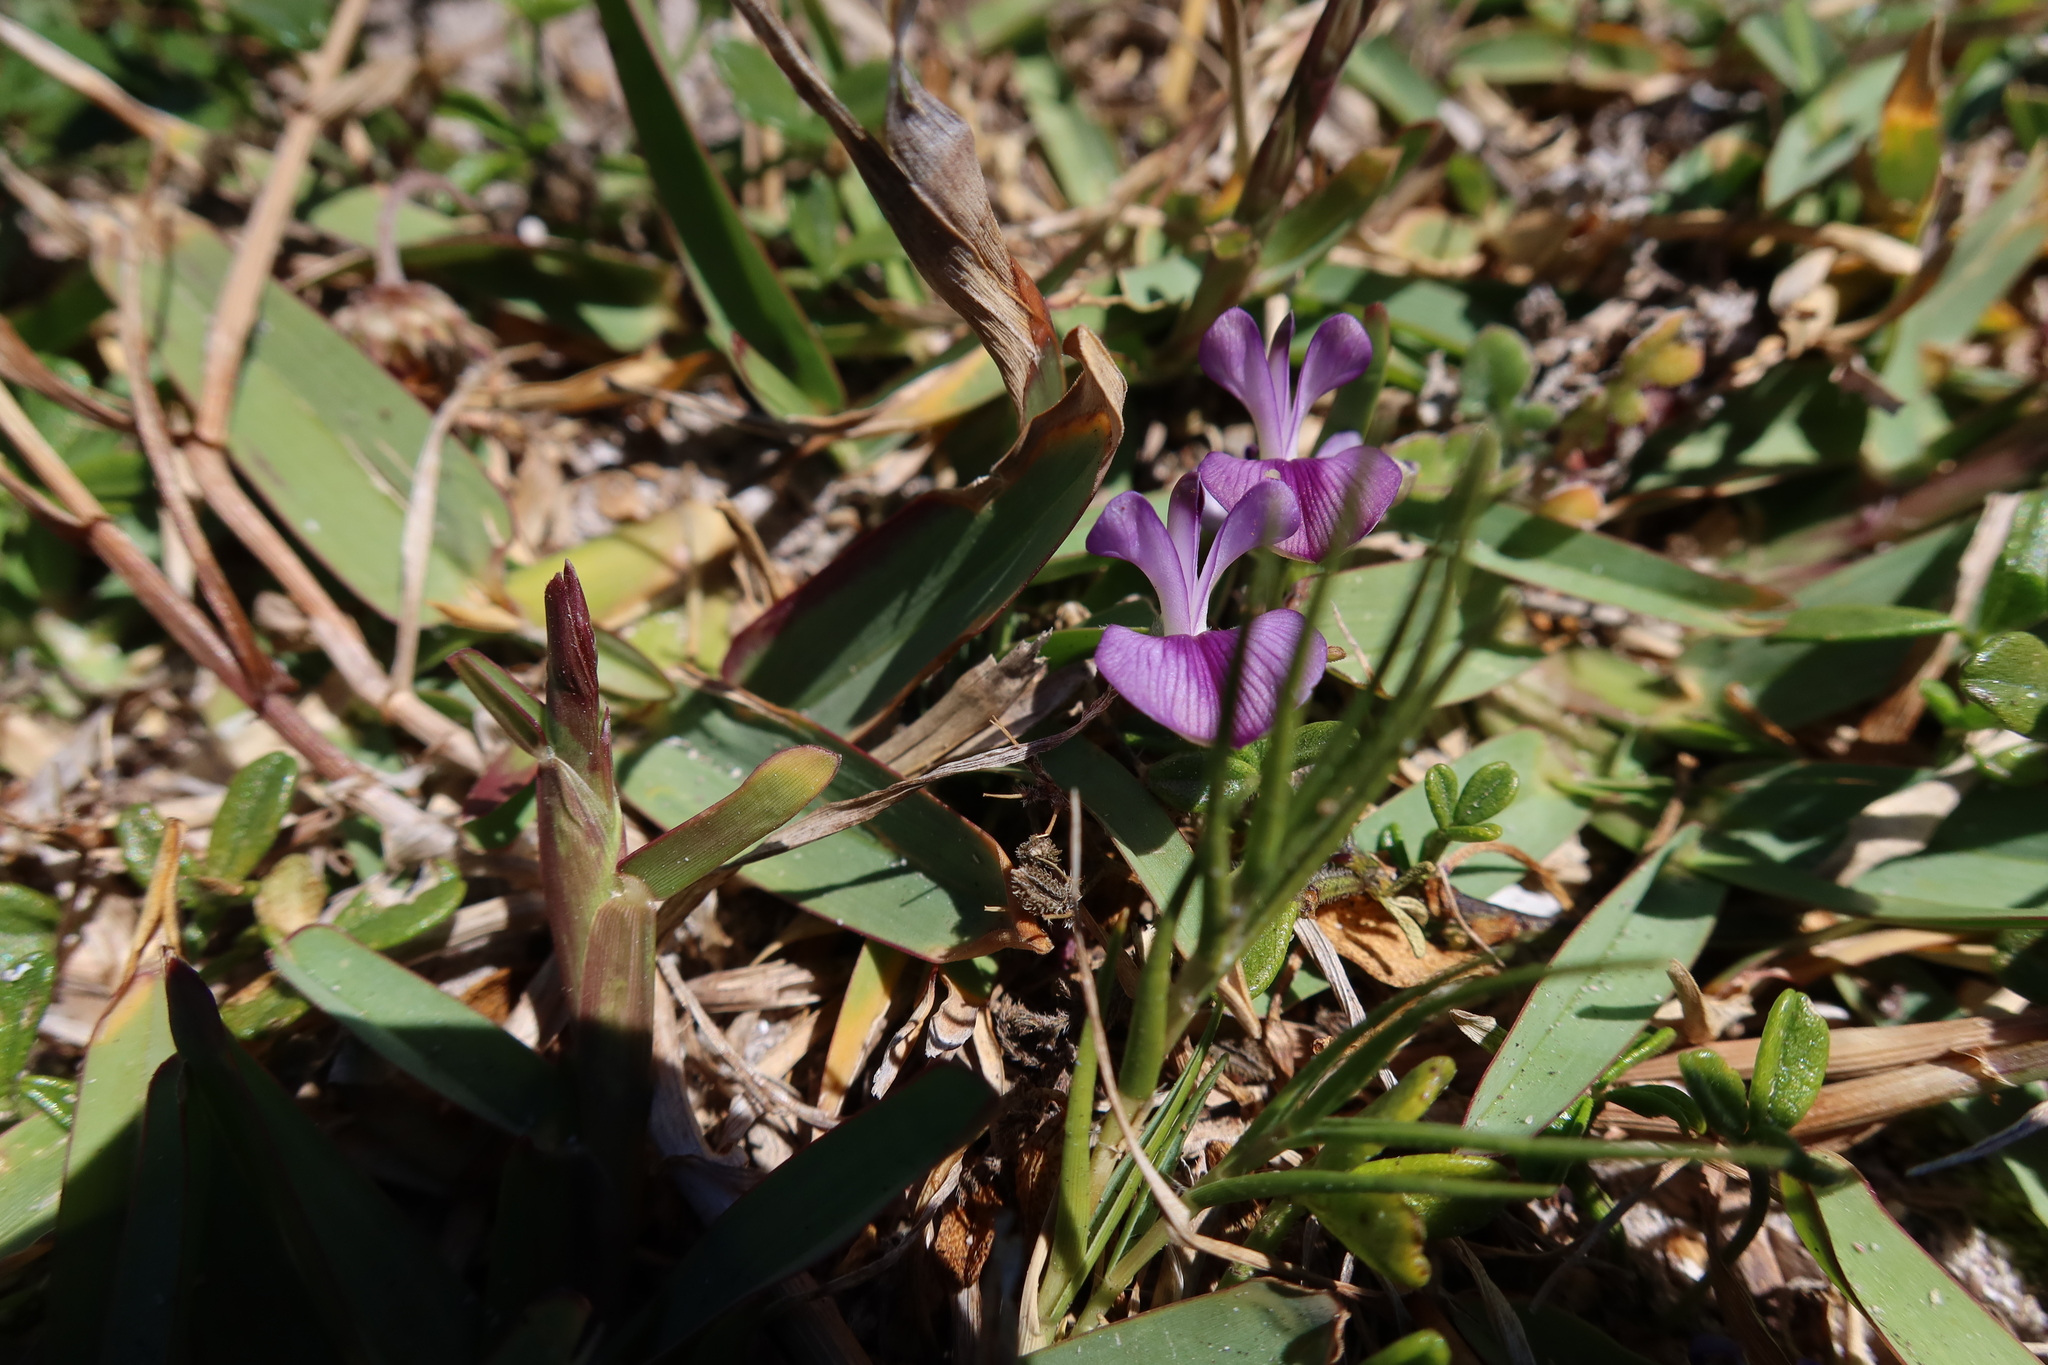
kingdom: Plantae
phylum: Tracheophyta
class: Magnoliopsida
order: Fabales
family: Fabaceae
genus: Psoralea
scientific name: Psoralea repens
